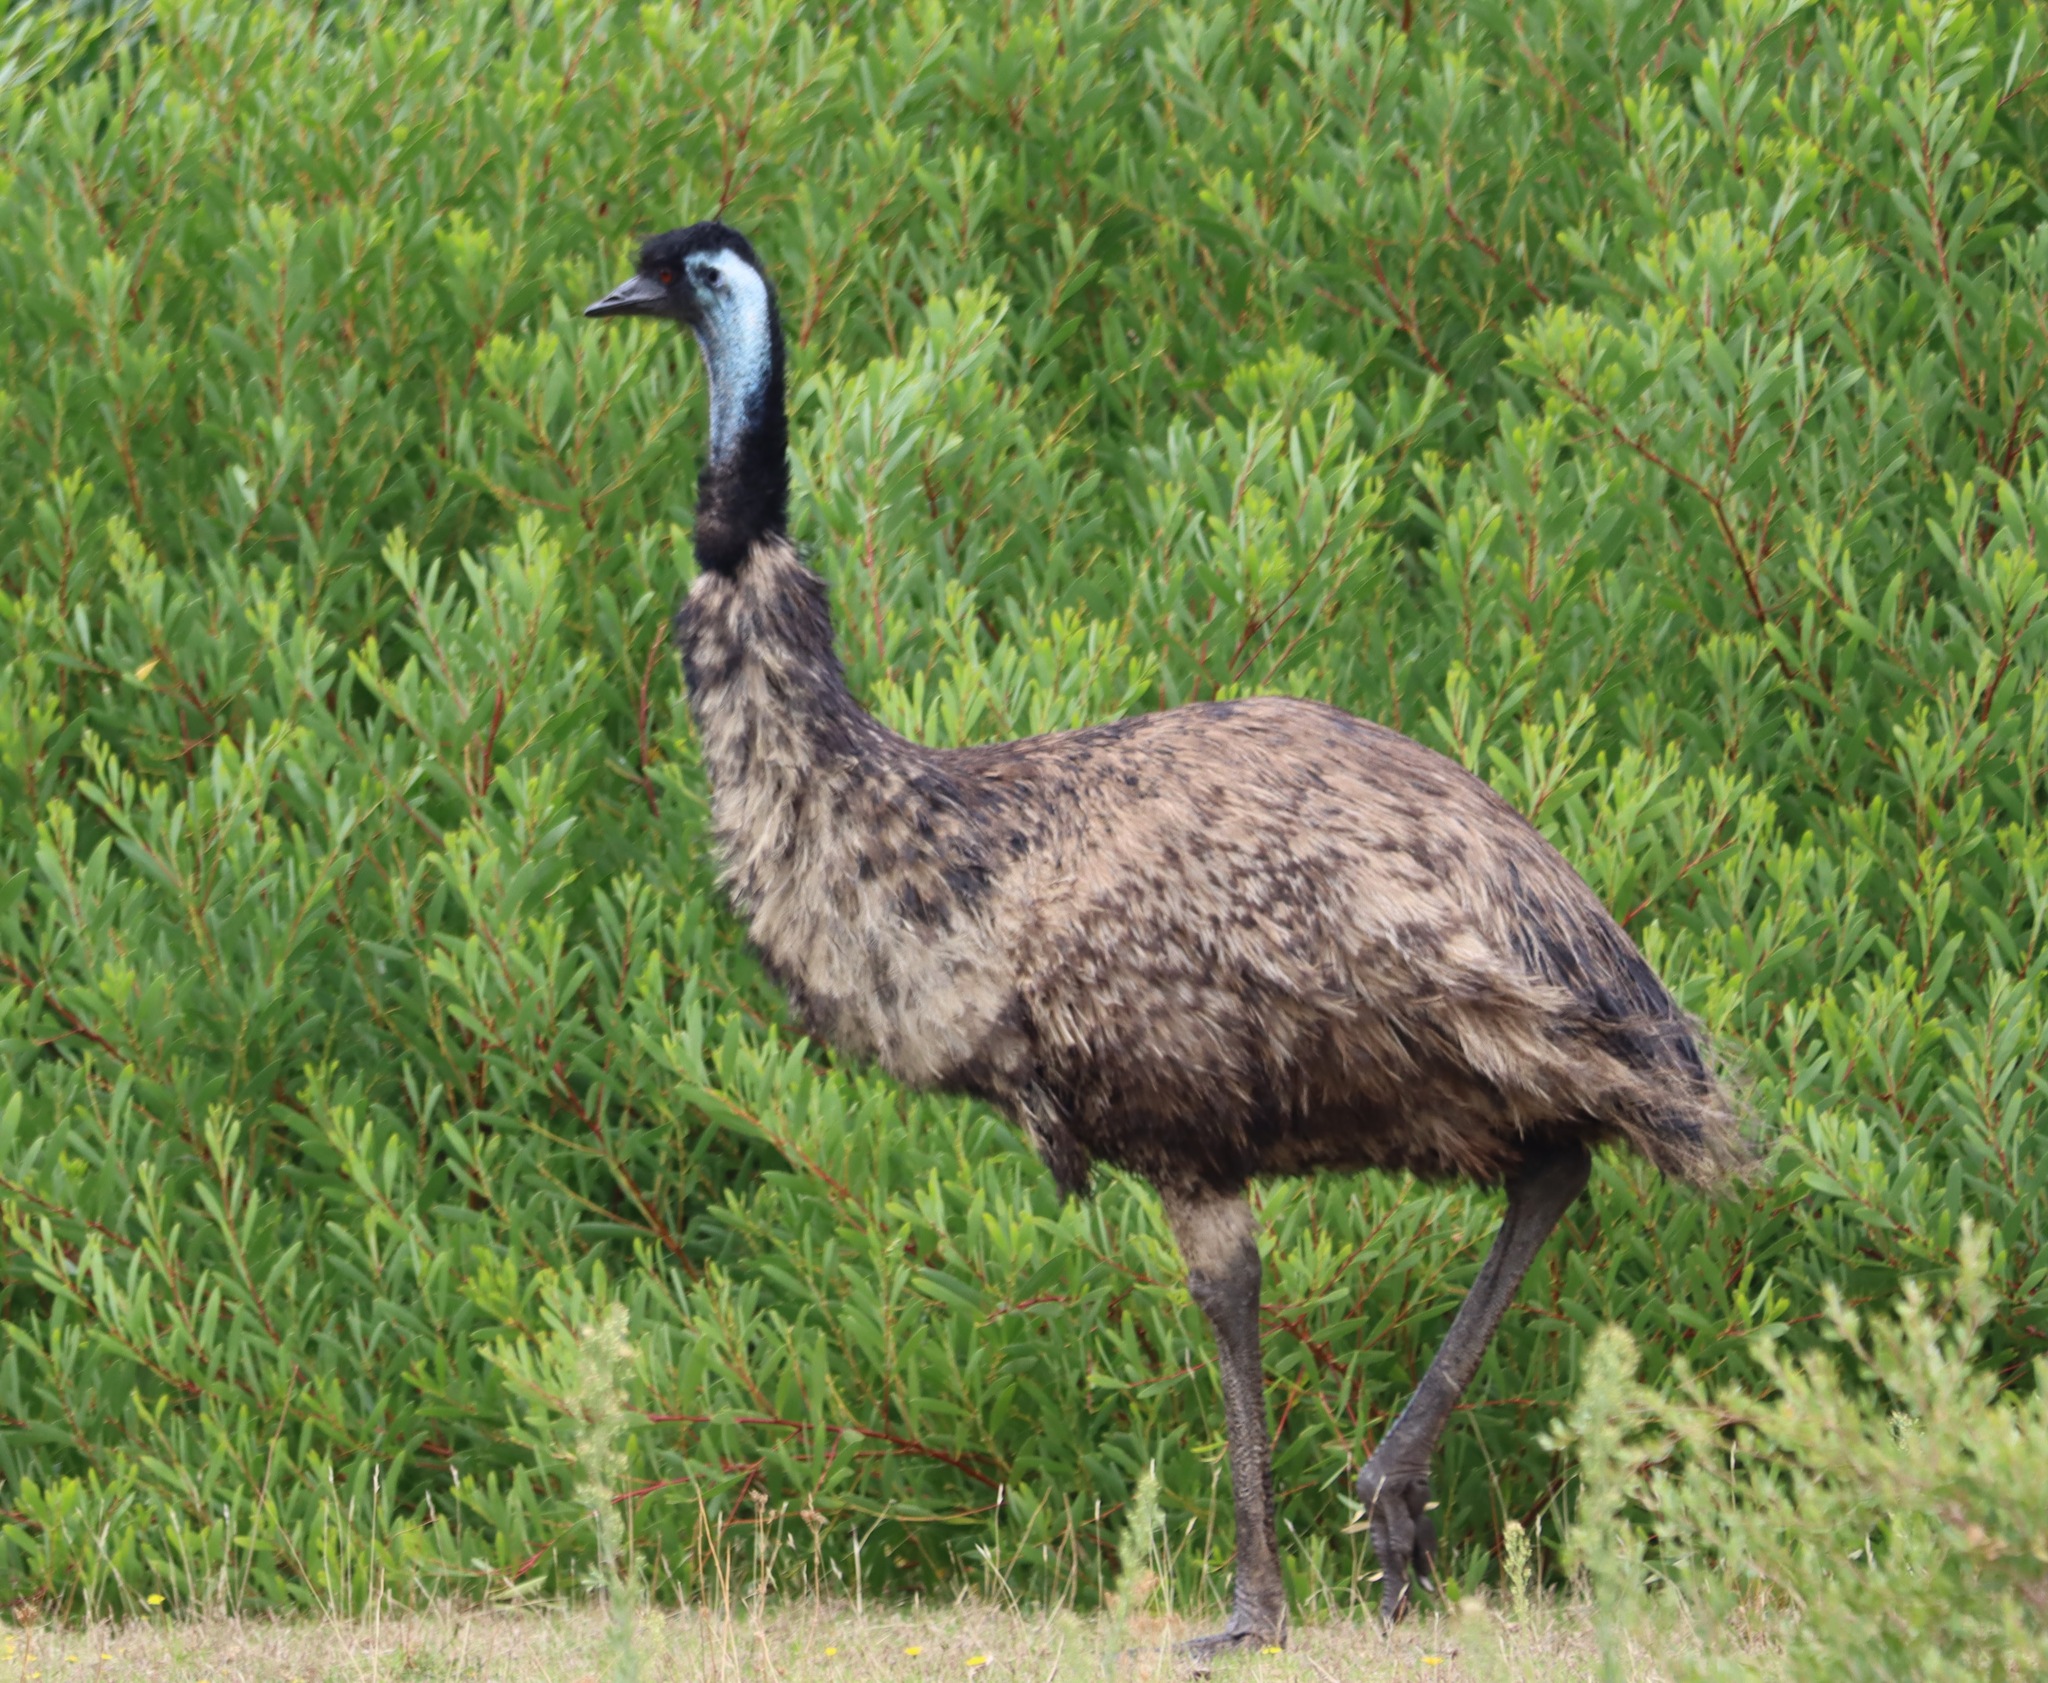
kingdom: Animalia
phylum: Chordata
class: Aves
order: Casuariiformes
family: Dromaiidae
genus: Dromaius
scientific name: Dromaius novaehollandiae
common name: Emu
